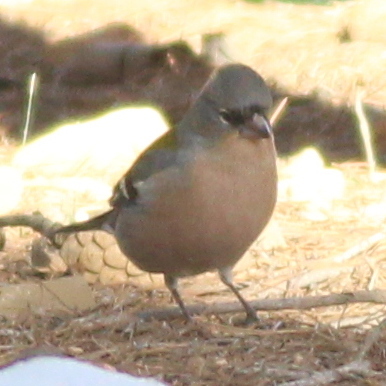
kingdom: Animalia
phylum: Chordata
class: Aves
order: Passeriformes
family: Fringillidae
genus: Fringilla
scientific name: Fringilla spodiogenys
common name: African chaffinch
